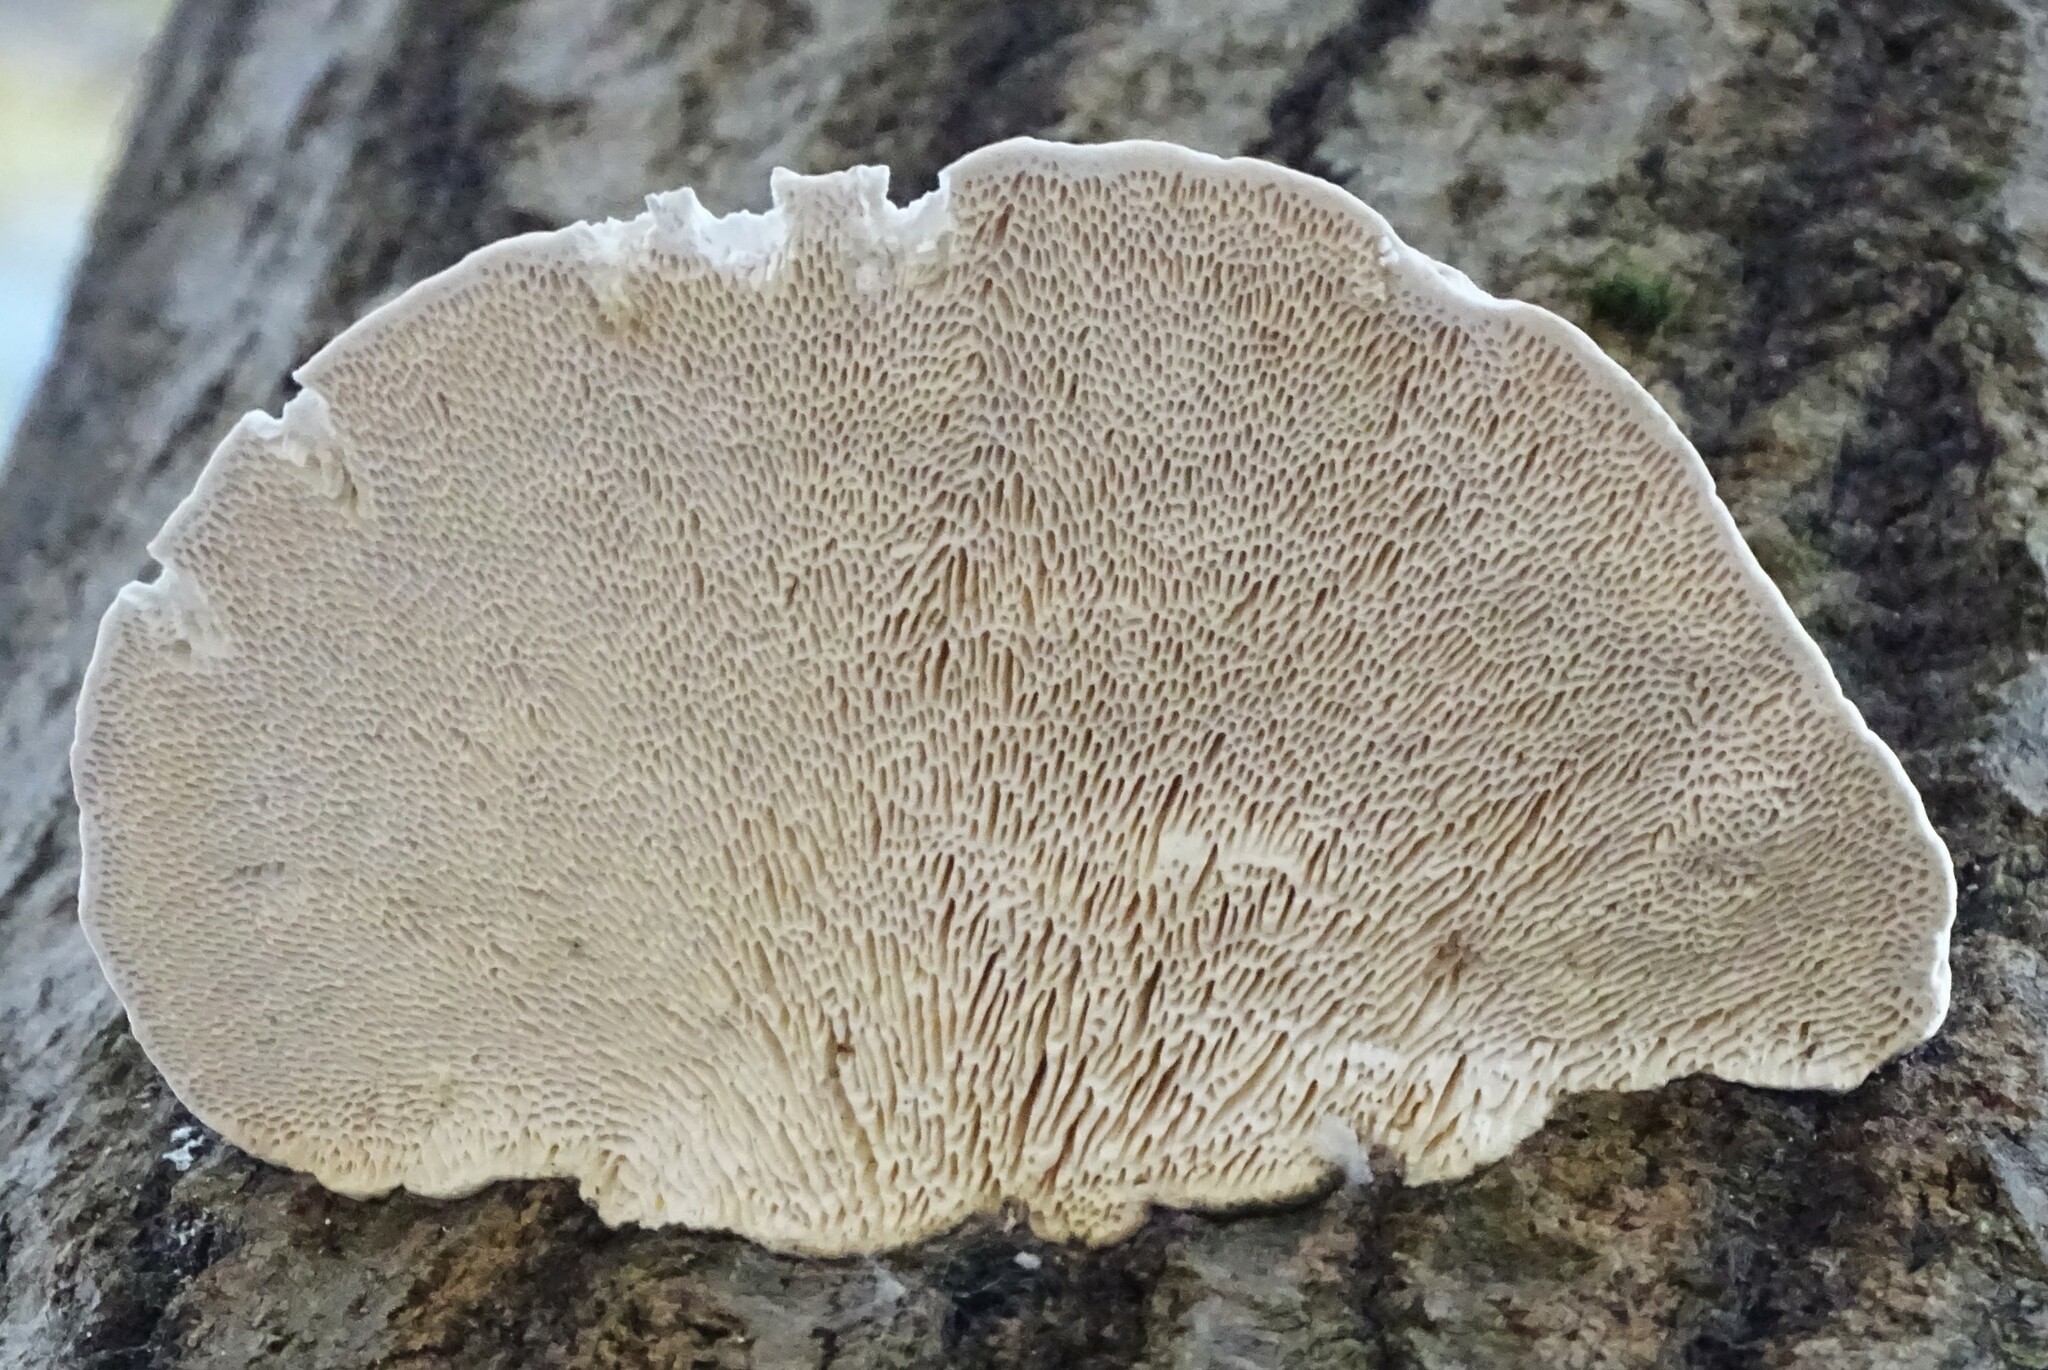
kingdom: Fungi
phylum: Basidiomycota
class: Agaricomycetes
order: Polyporales
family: Polyporaceae
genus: Trametes
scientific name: Trametes gibbosa
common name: Lumpy bracket
